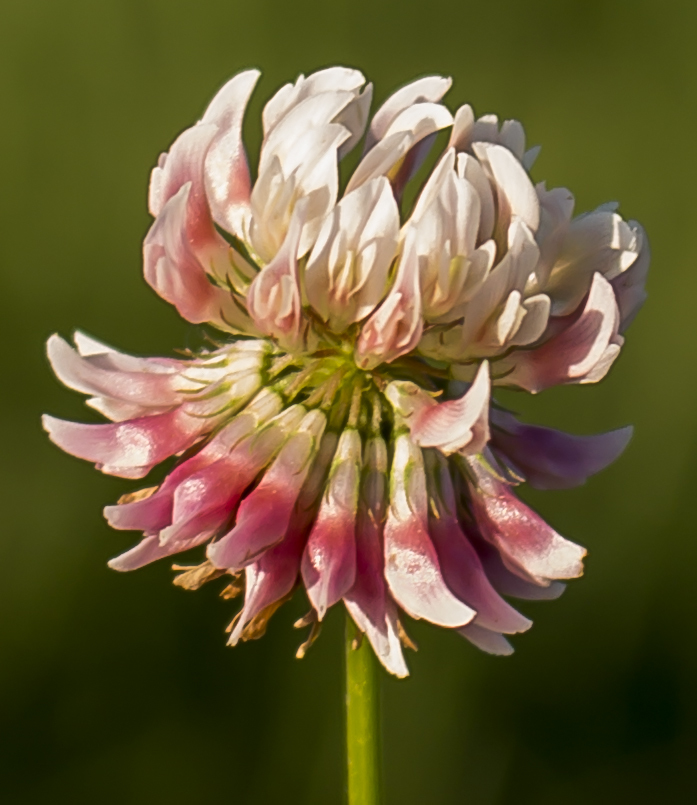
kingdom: Plantae
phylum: Tracheophyta
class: Magnoliopsida
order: Fabales
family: Fabaceae
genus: Trifolium
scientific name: Trifolium hybridum
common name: Alsike clover
